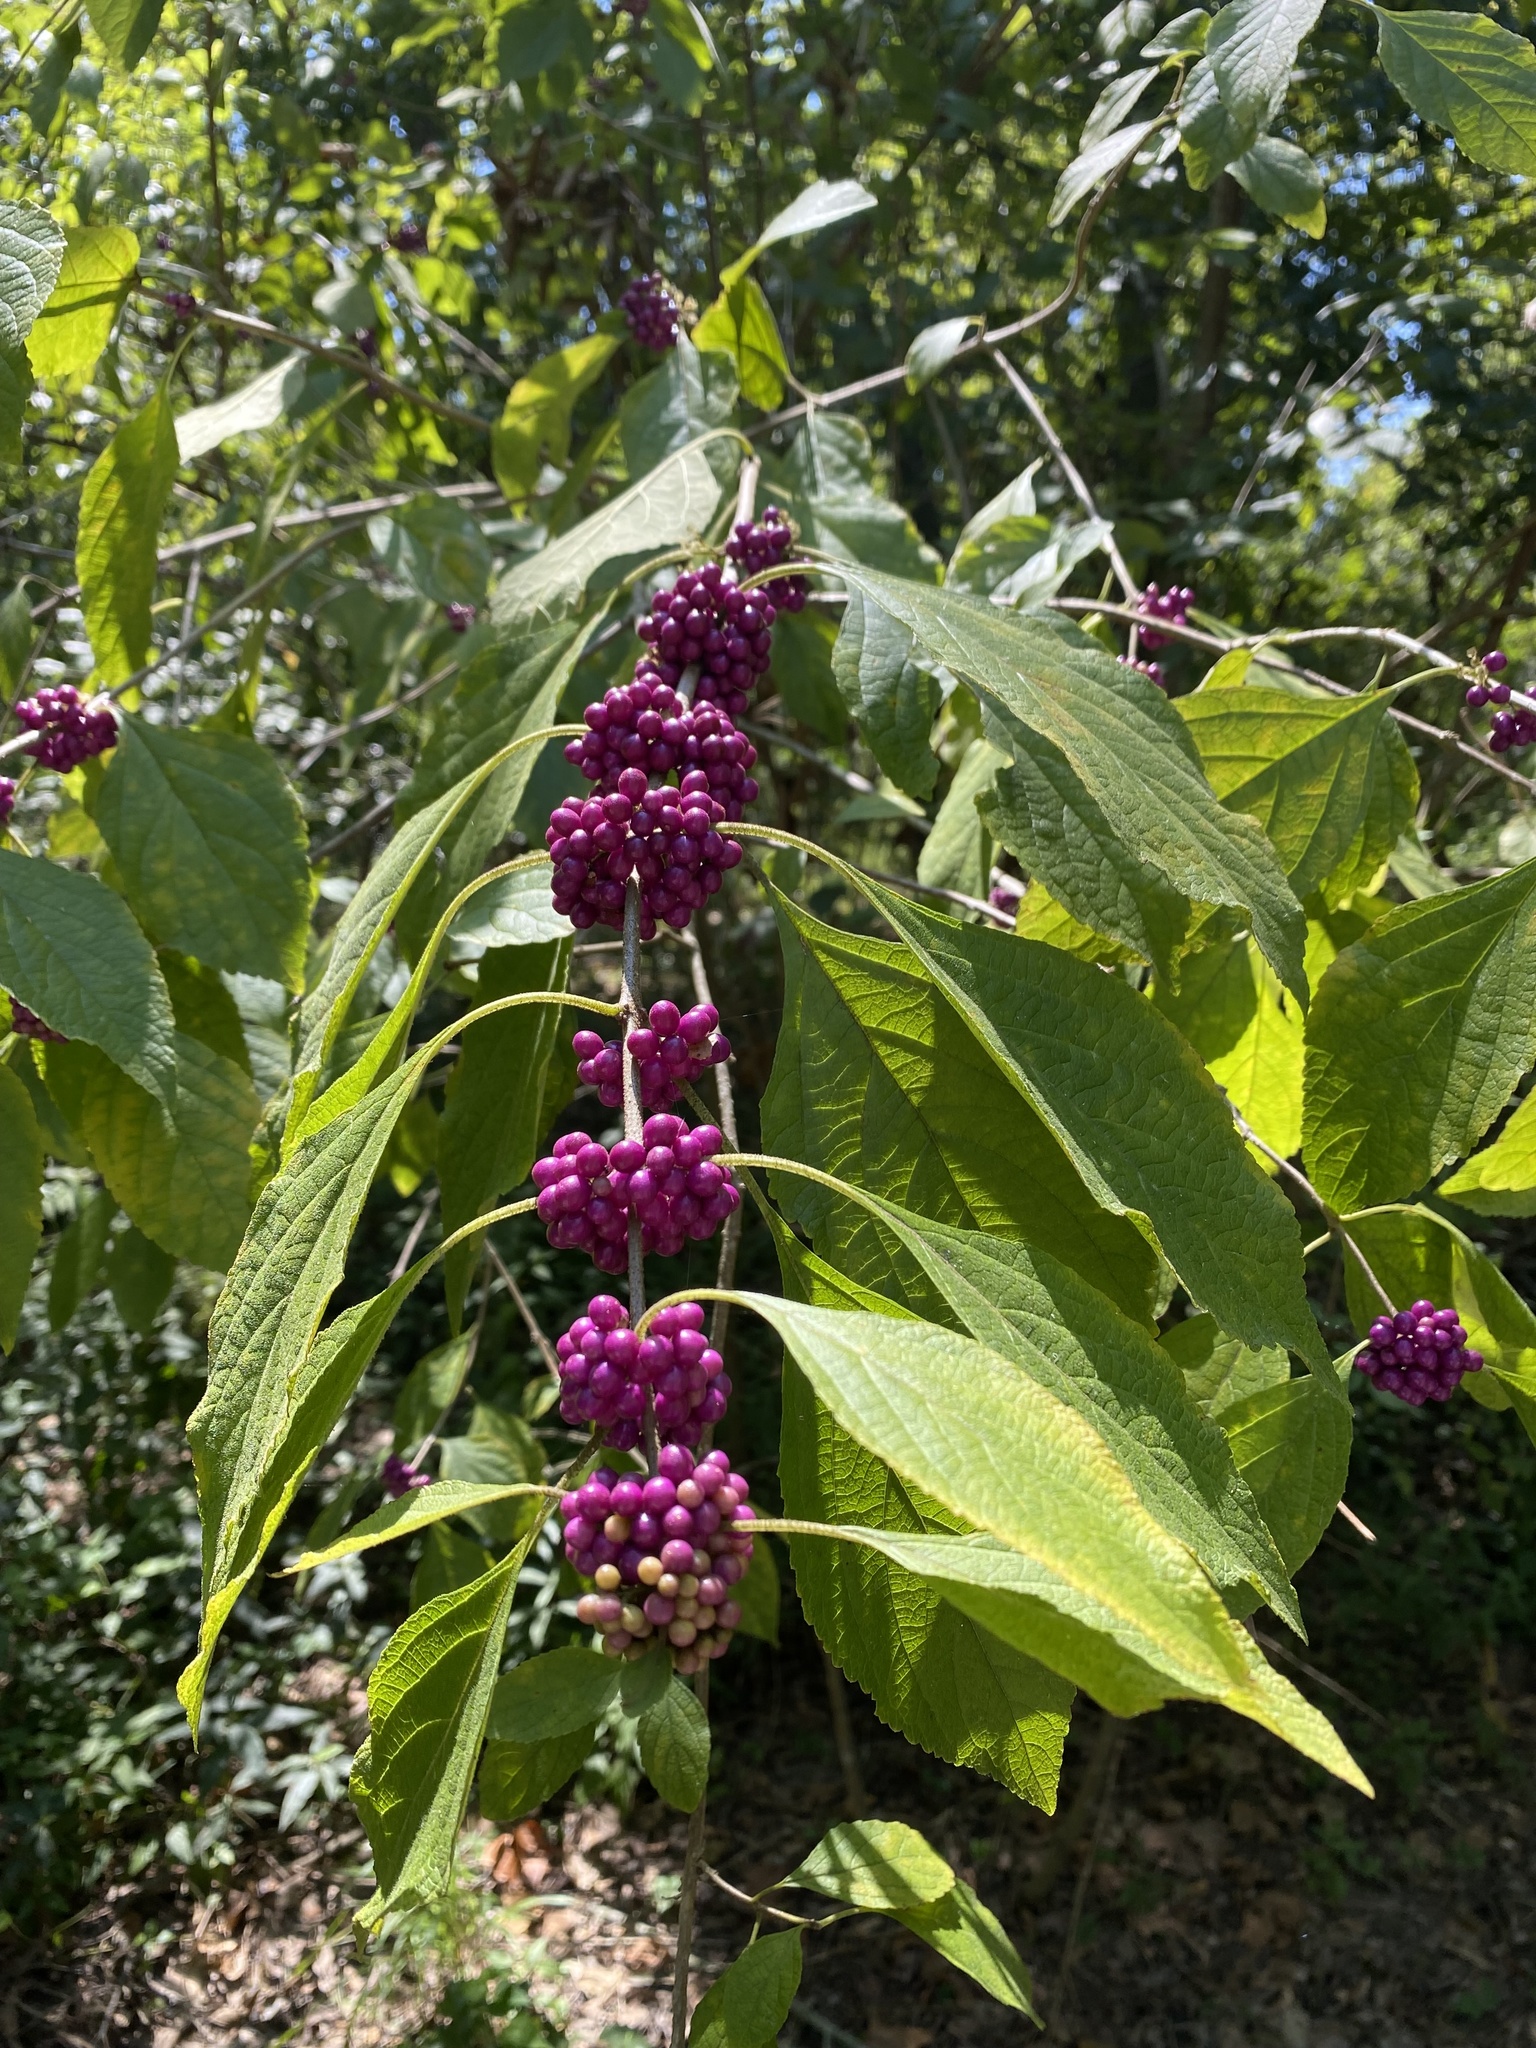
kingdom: Plantae
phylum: Tracheophyta
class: Magnoliopsida
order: Lamiales
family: Lamiaceae
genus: Callicarpa
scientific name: Callicarpa americana
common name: American beautyberry
